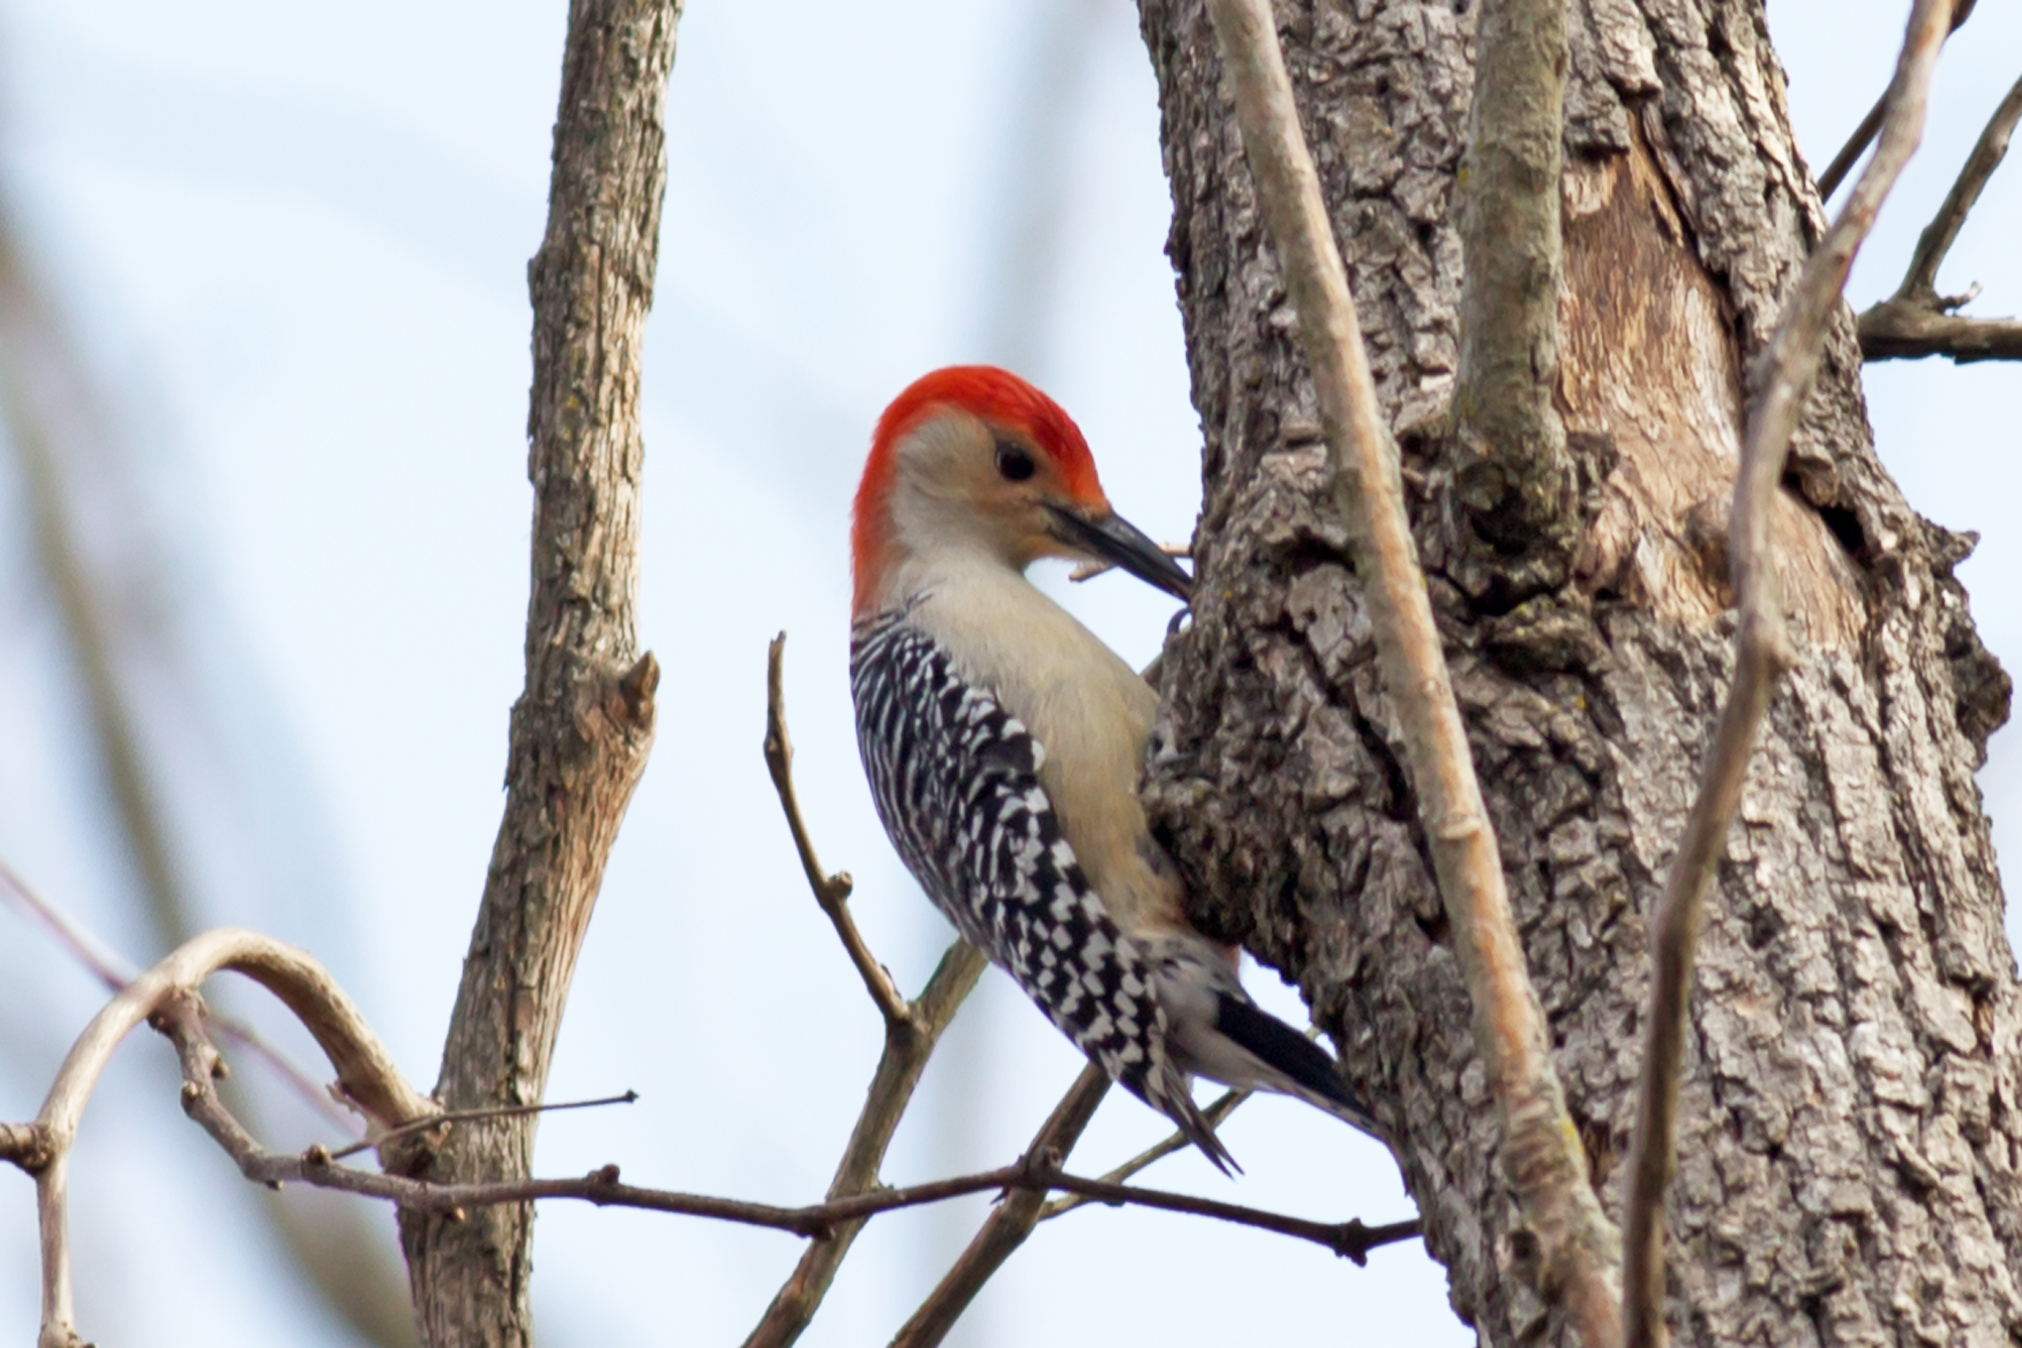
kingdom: Animalia
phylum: Chordata
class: Aves
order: Piciformes
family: Picidae
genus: Melanerpes
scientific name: Melanerpes carolinus
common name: Red-bellied woodpecker
